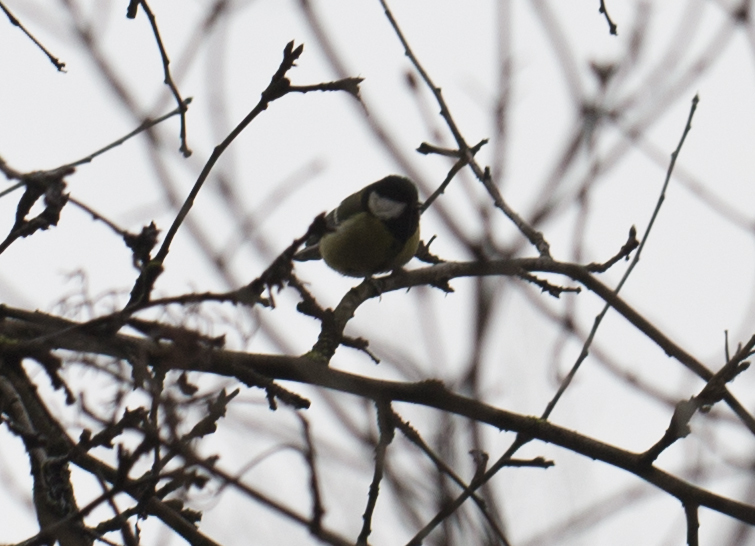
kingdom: Animalia
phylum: Chordata
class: Aves
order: Passeriformes
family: Paridae
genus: Parus
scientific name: Parus major
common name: Great tit
